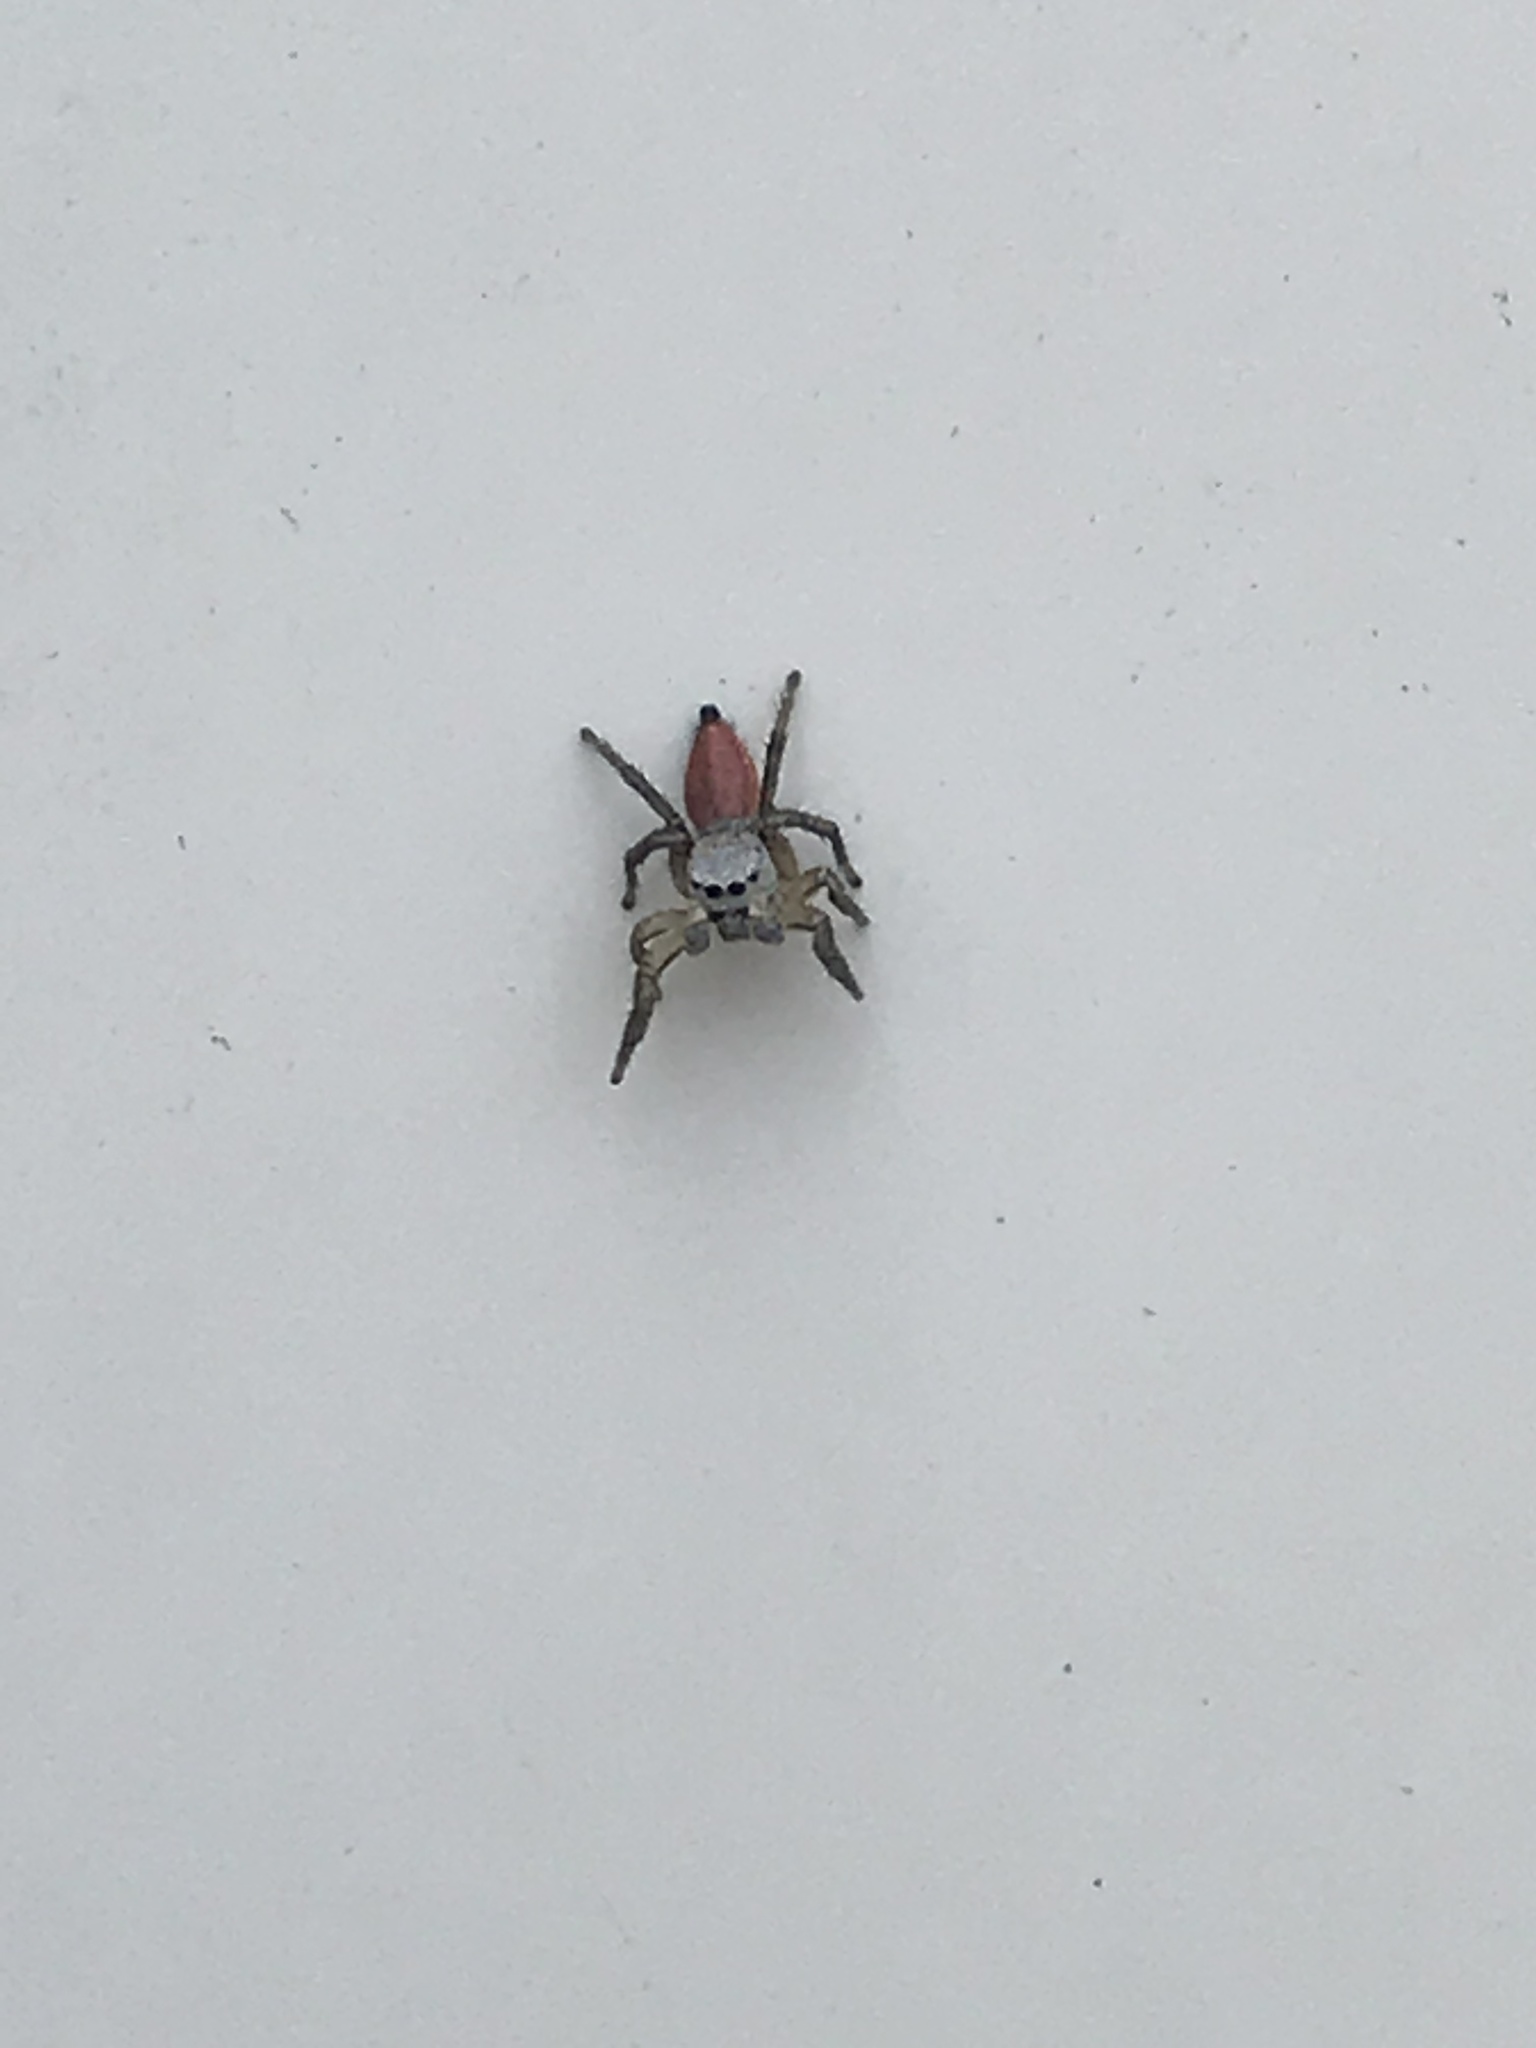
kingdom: Animalia
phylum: Arthropoda
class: Arachnida
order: Araneae
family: Salticidae
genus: Habronattus
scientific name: Habronattus decorus
